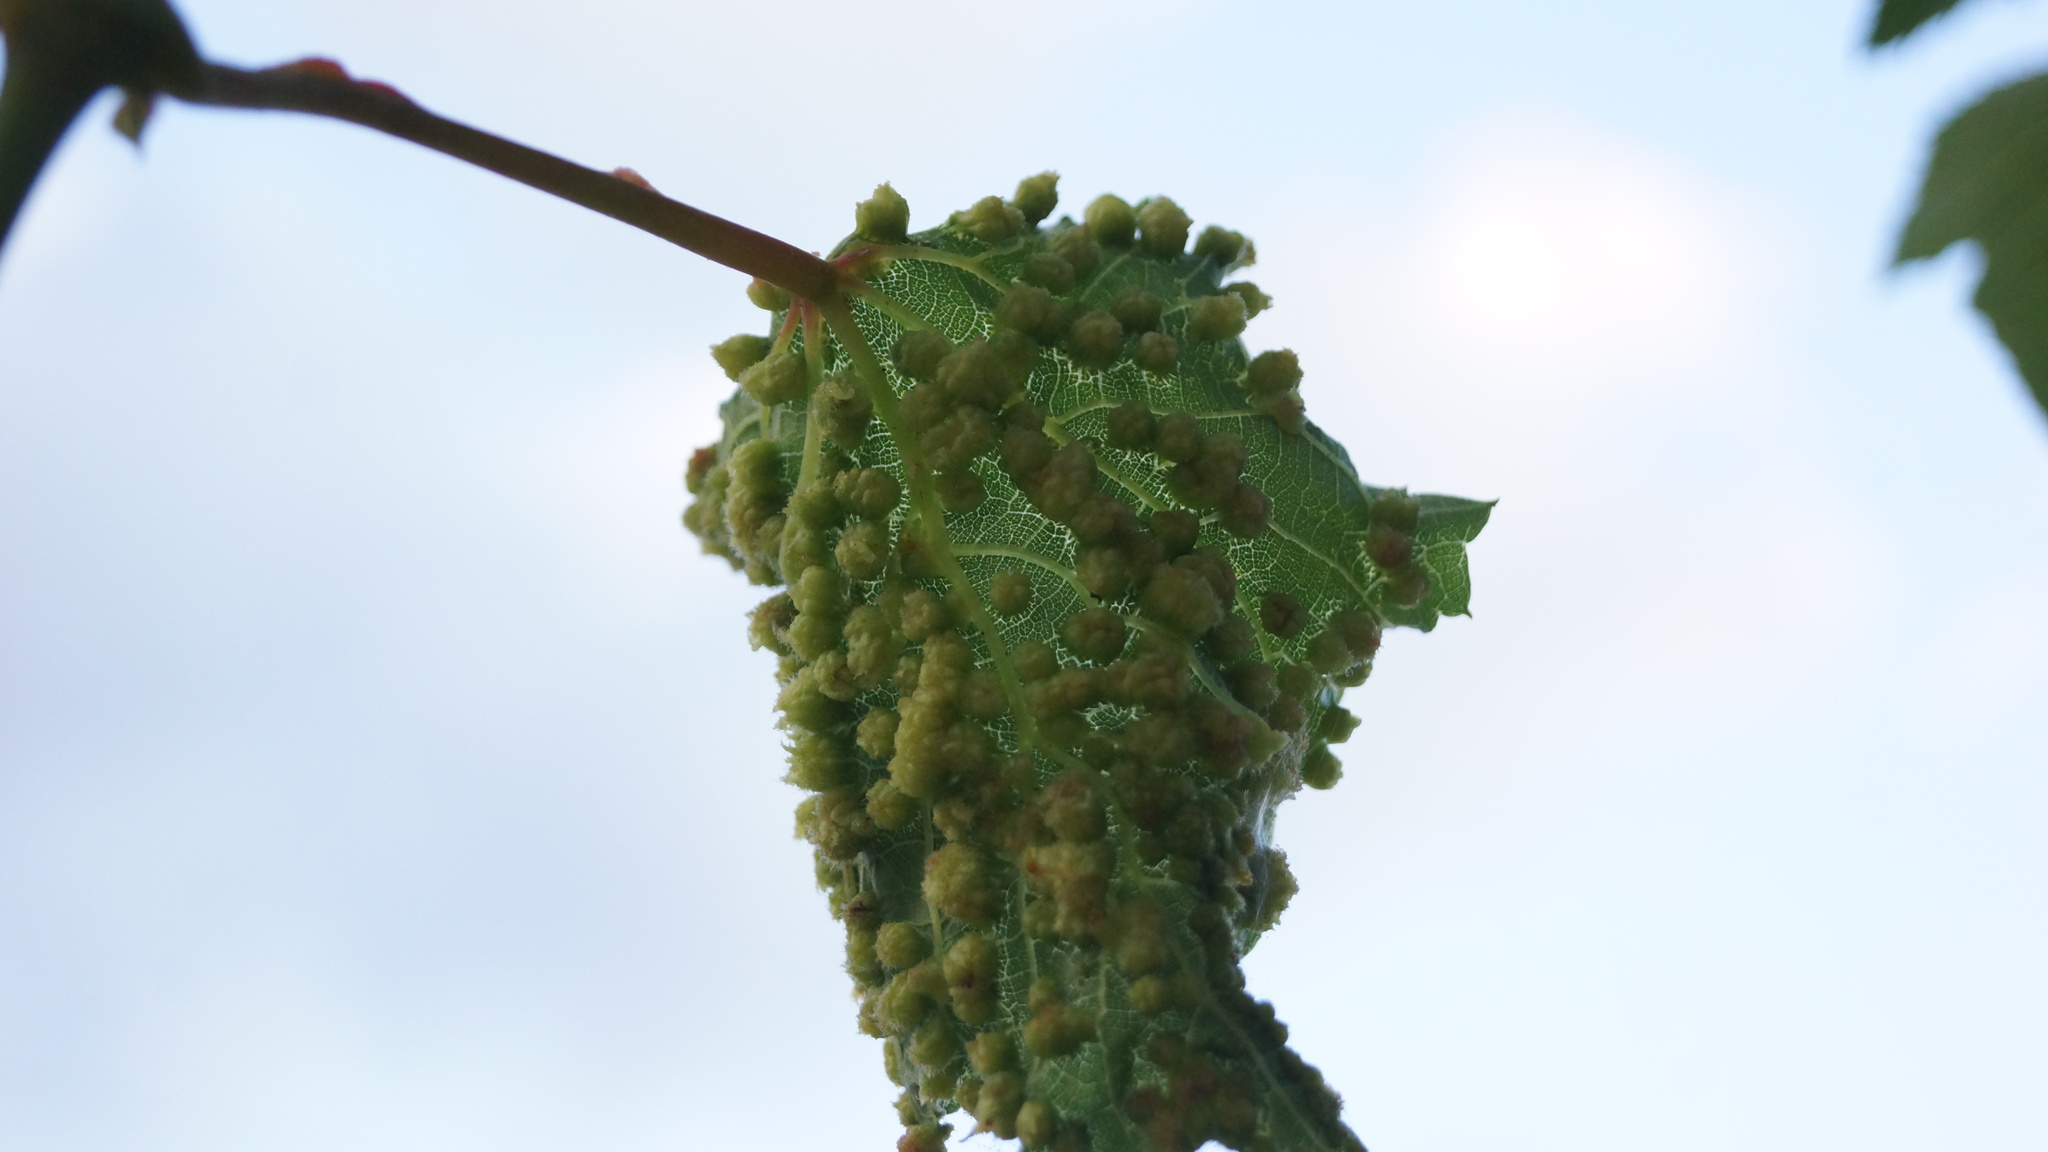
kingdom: Animalia
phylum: Arthropoda
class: Insecta
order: Hemiptera
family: Phylloxeridae
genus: Daktulosphaira
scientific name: Daktulosphaira vitifoliae
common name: Grape phylloxera
